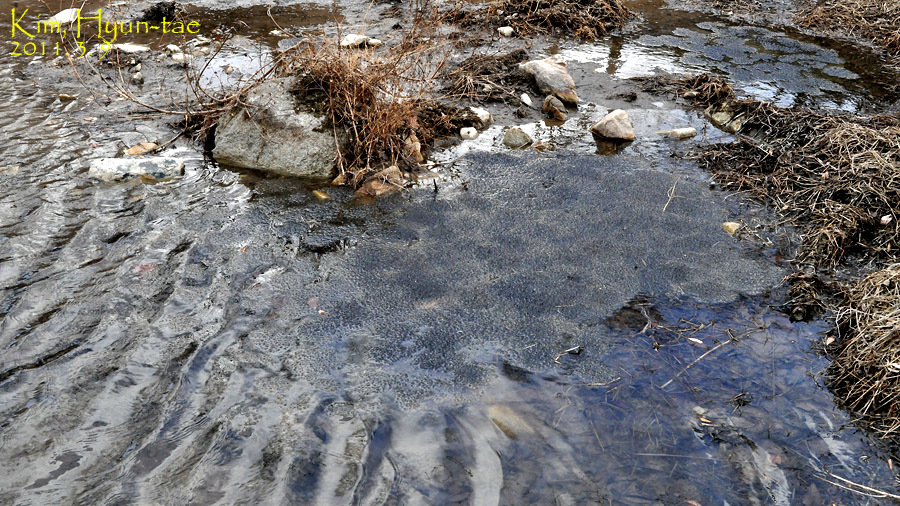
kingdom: Animalia
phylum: Chordata
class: Amphibia
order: Anura
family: Ranidae
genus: Rana
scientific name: Rana uenoi
